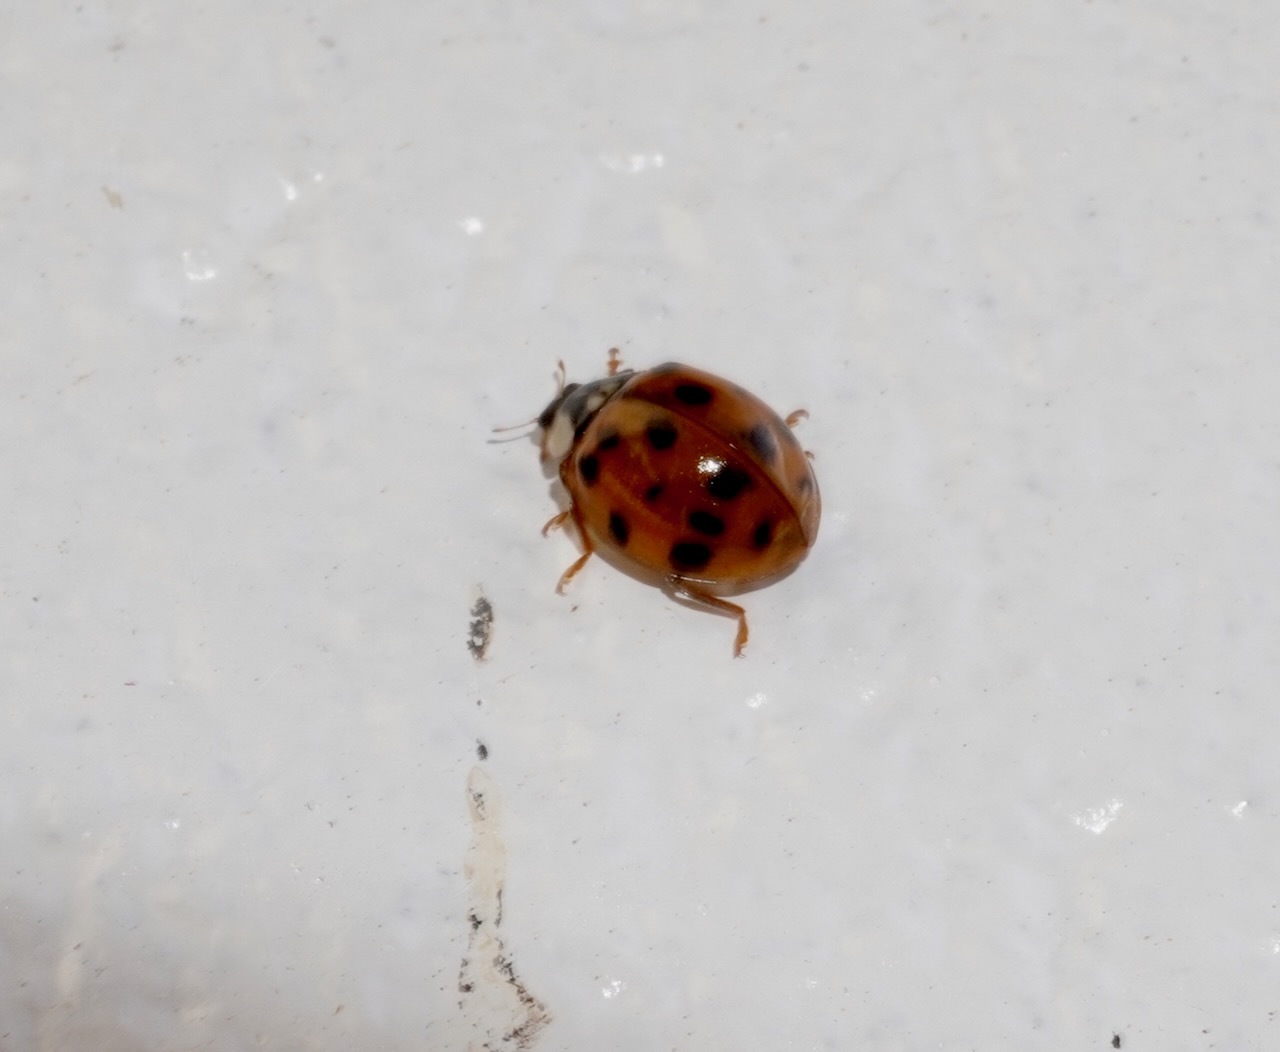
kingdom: Animalia
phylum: Arthropoda
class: Insecta
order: Coleoptera
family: Coccinellidae
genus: Harmonia
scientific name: Harmonia axyridis
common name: Harlequin ladybird
